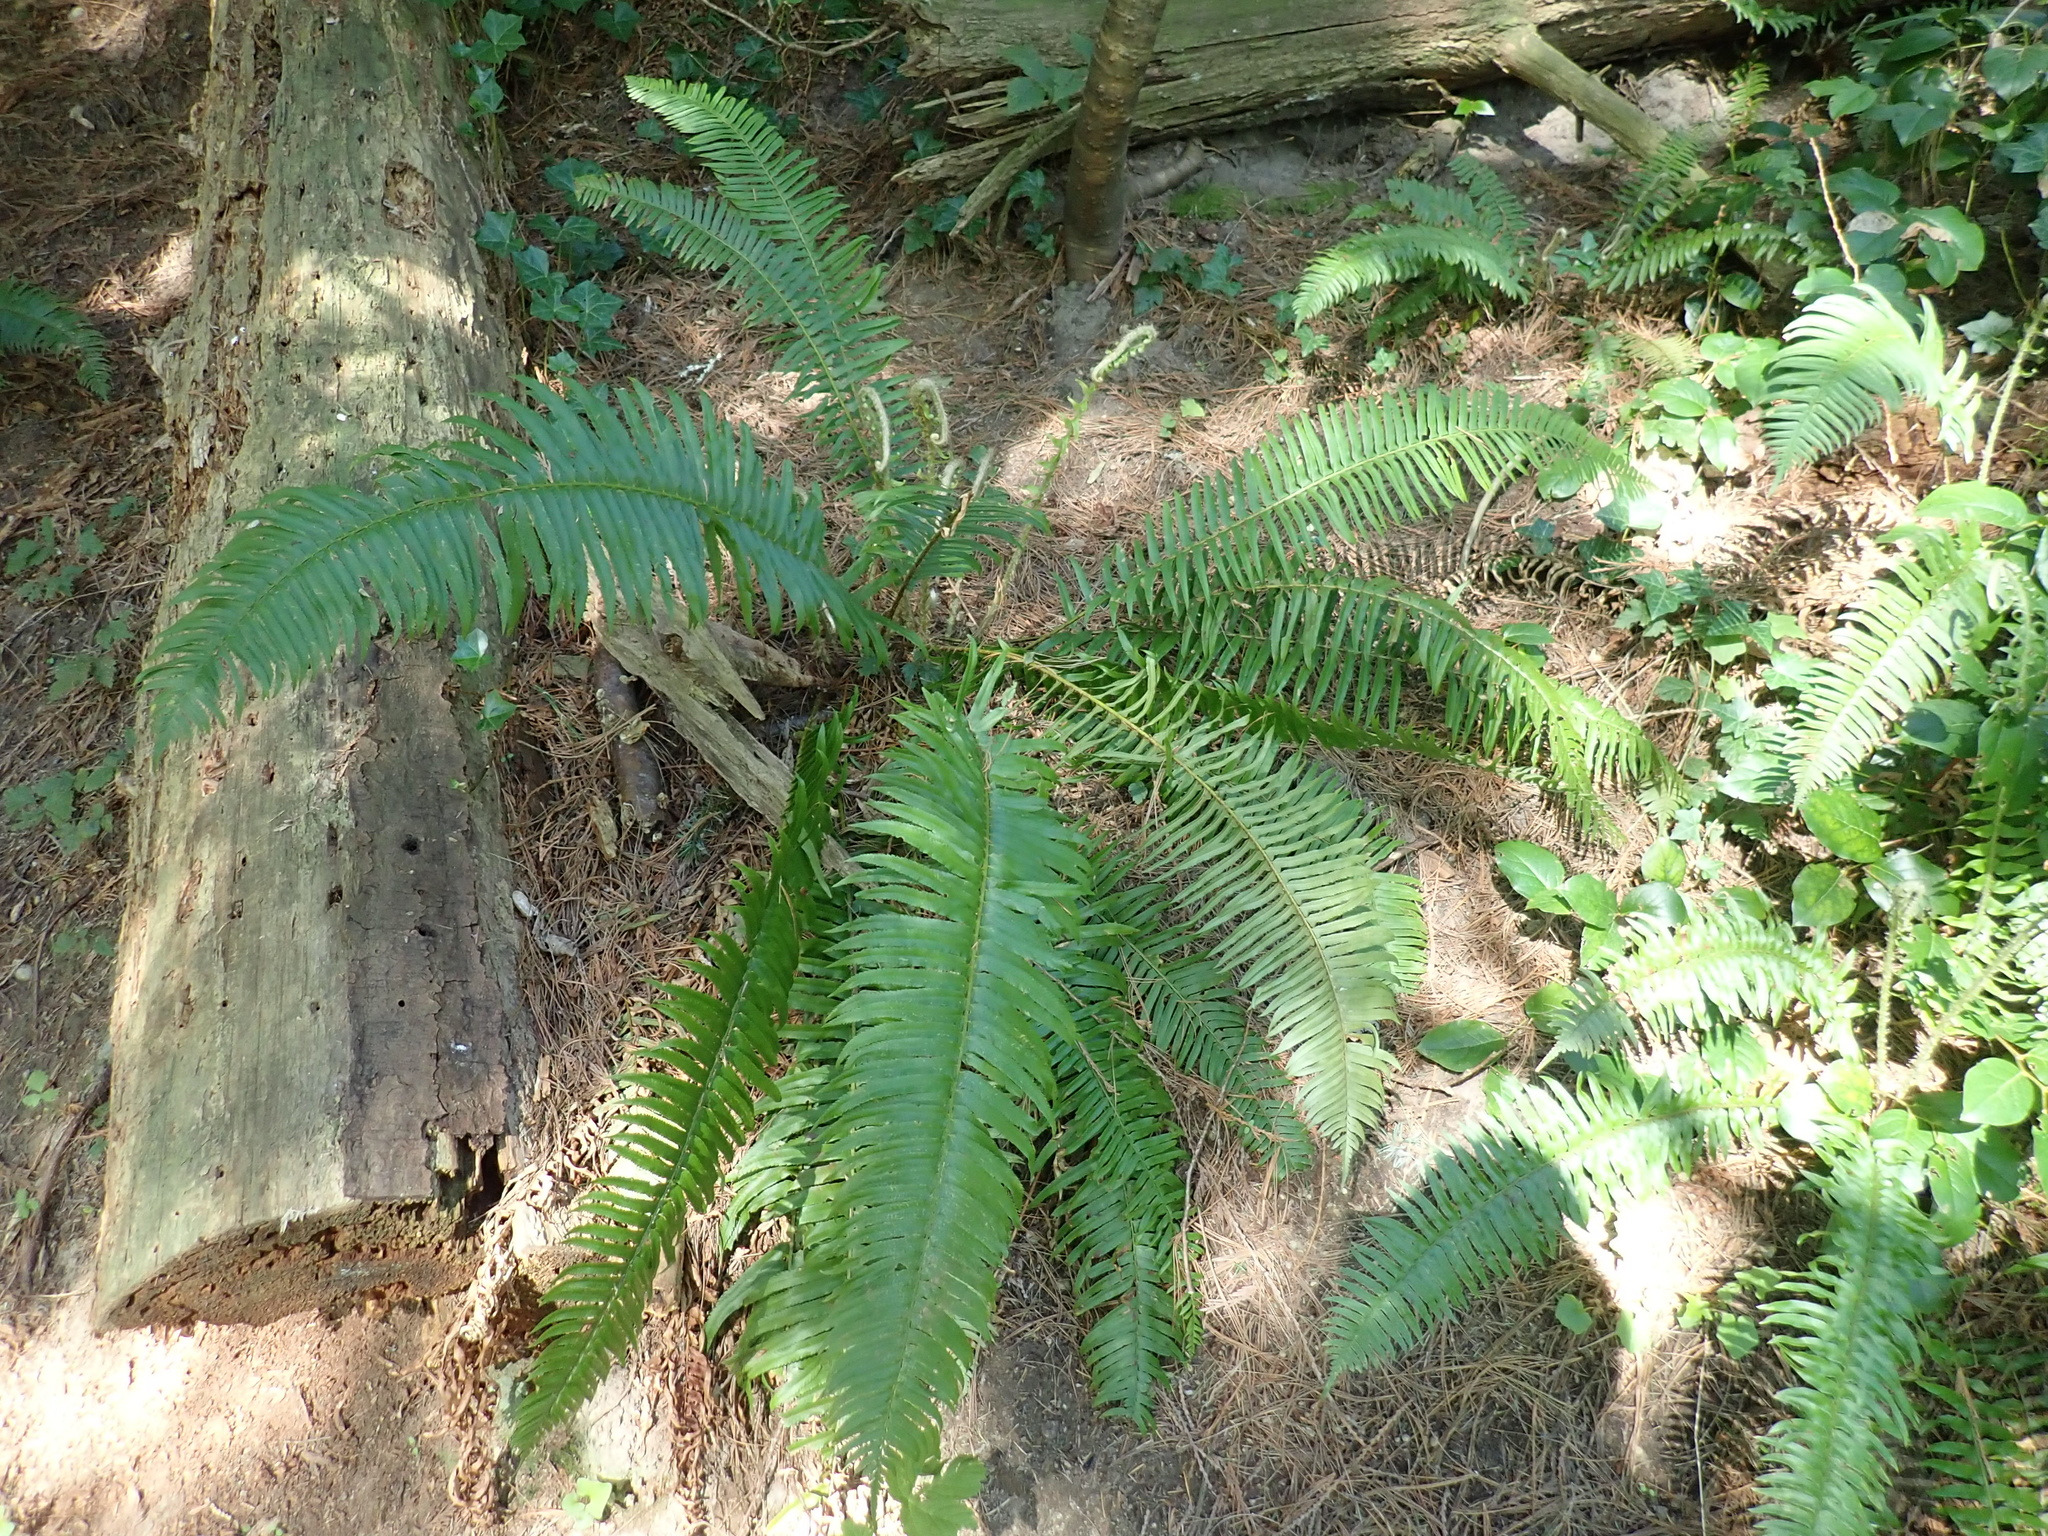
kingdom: Plantae
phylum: Tracheophyta
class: Polypodiopsida
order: Polypodiales
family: Dryopteridaceae
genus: Polystichum
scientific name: Polystichum munitum
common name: Western sword-fern
